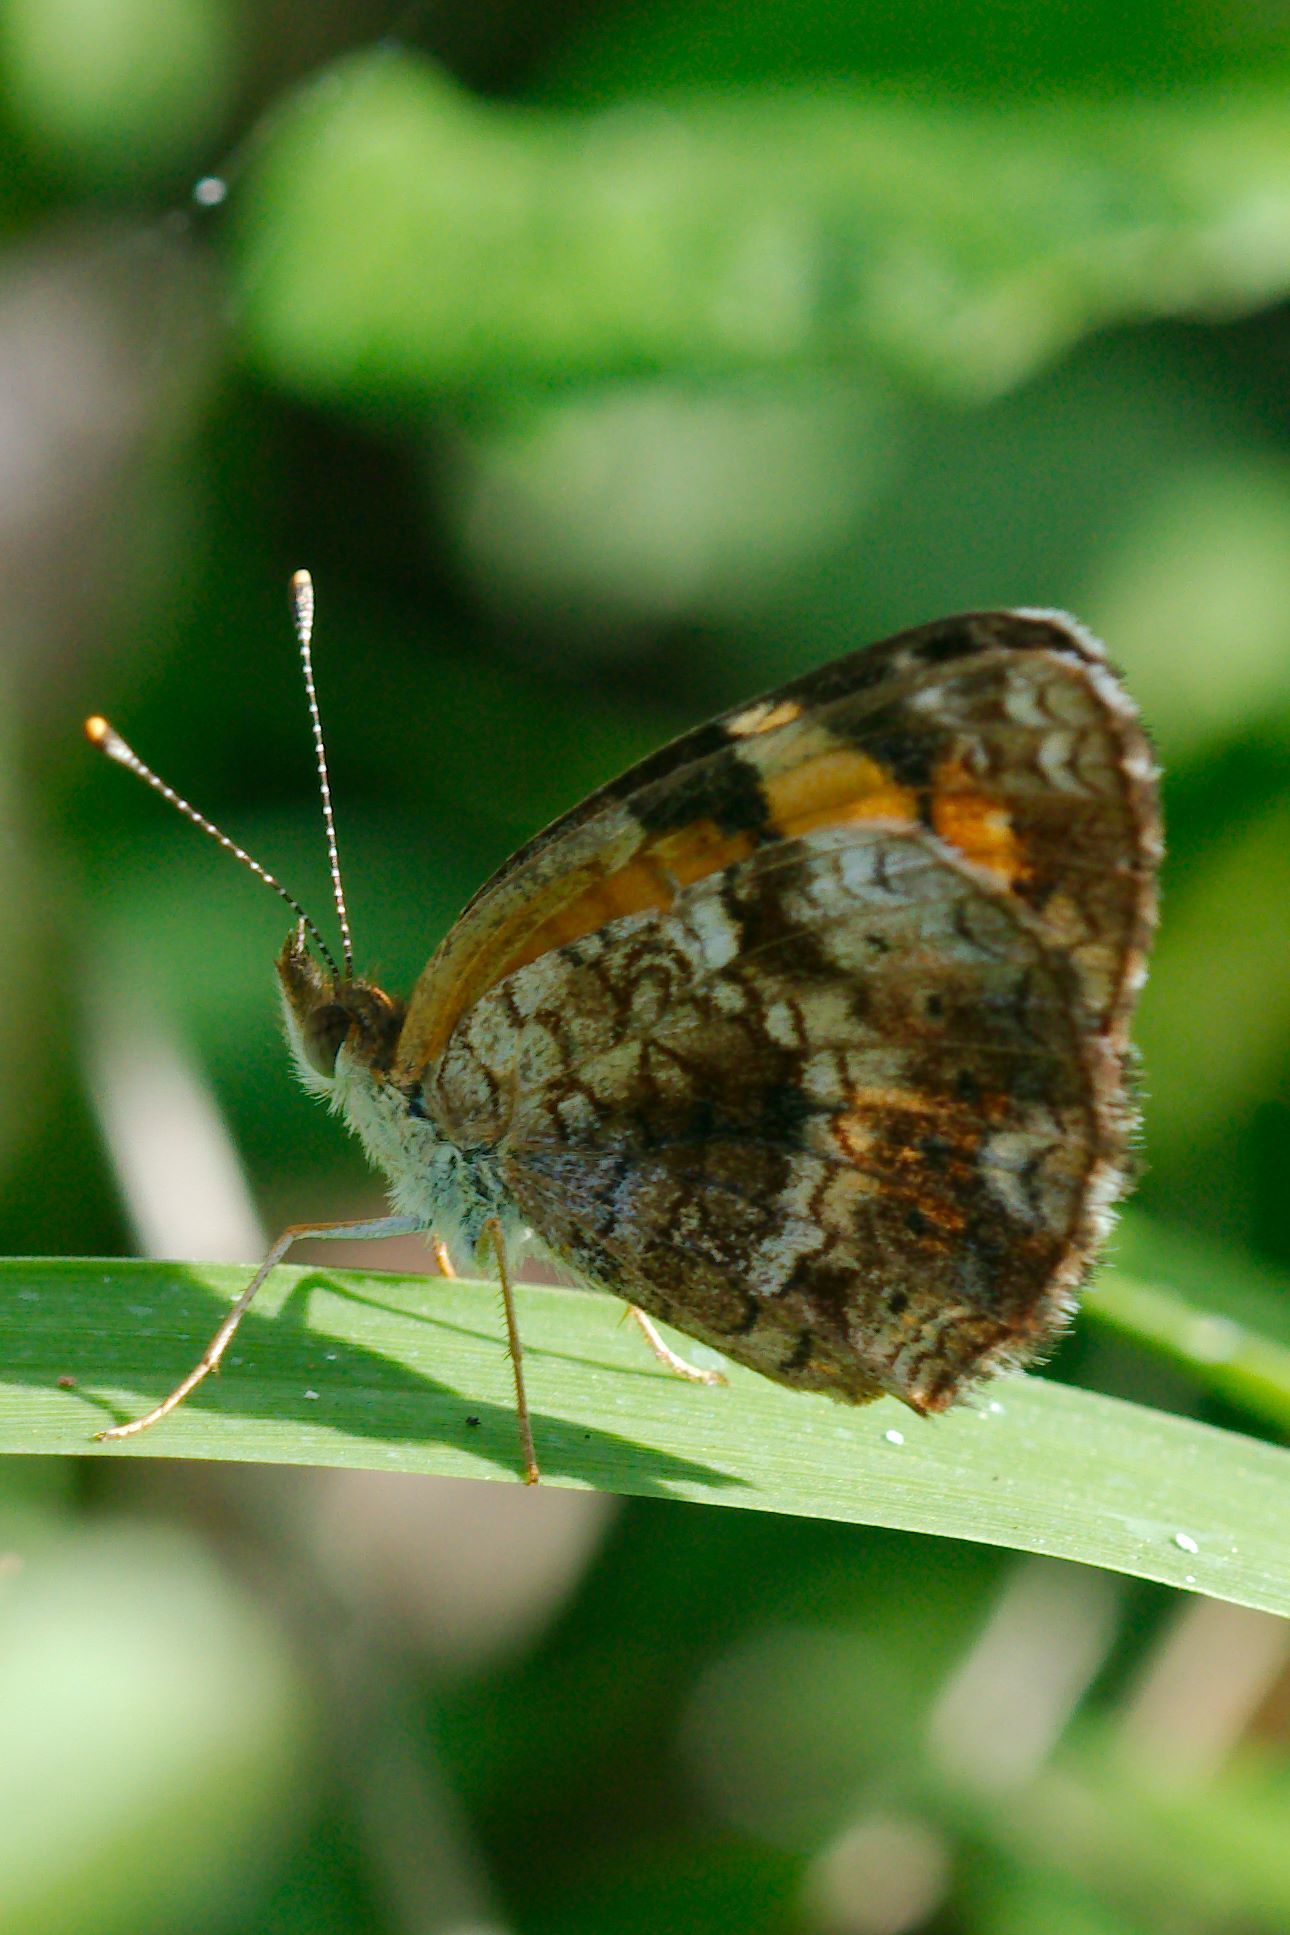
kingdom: Animalia
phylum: Arthropoda
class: Insecta
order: Lepidoptera
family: Nymphalidae
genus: Phyciodes
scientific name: Phyciodes phaon
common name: Phaon crescent
